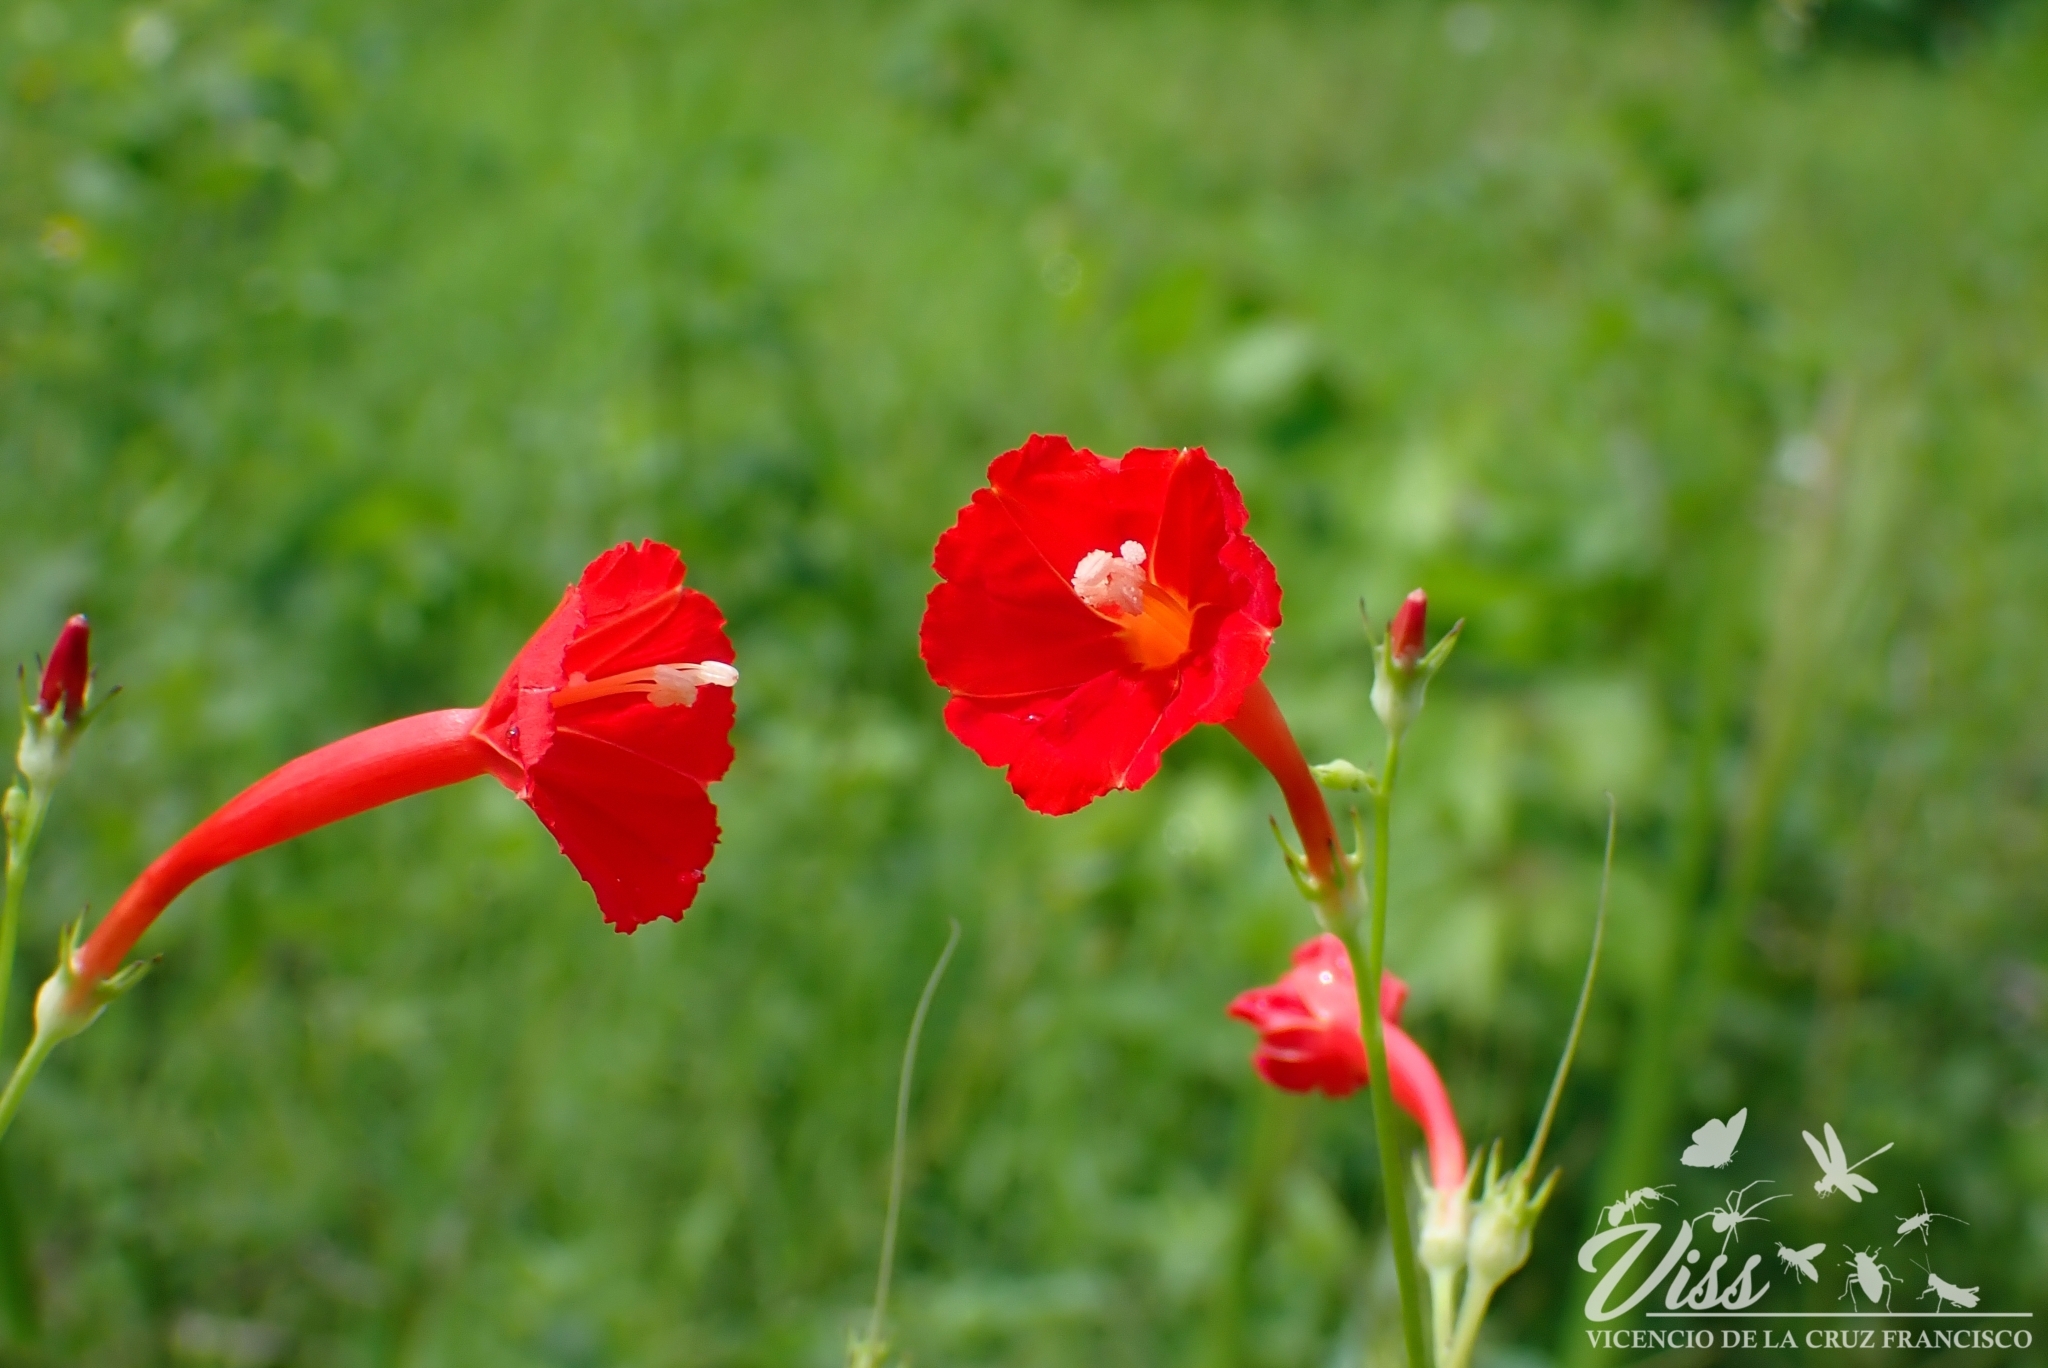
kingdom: Plantae
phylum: Tracheophyta
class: Magnoliopsida
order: Solanales
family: Convolvulaceae
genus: Ipomoea
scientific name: Ipomoea hederifolia
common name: Ivy-leaf morning-glory
